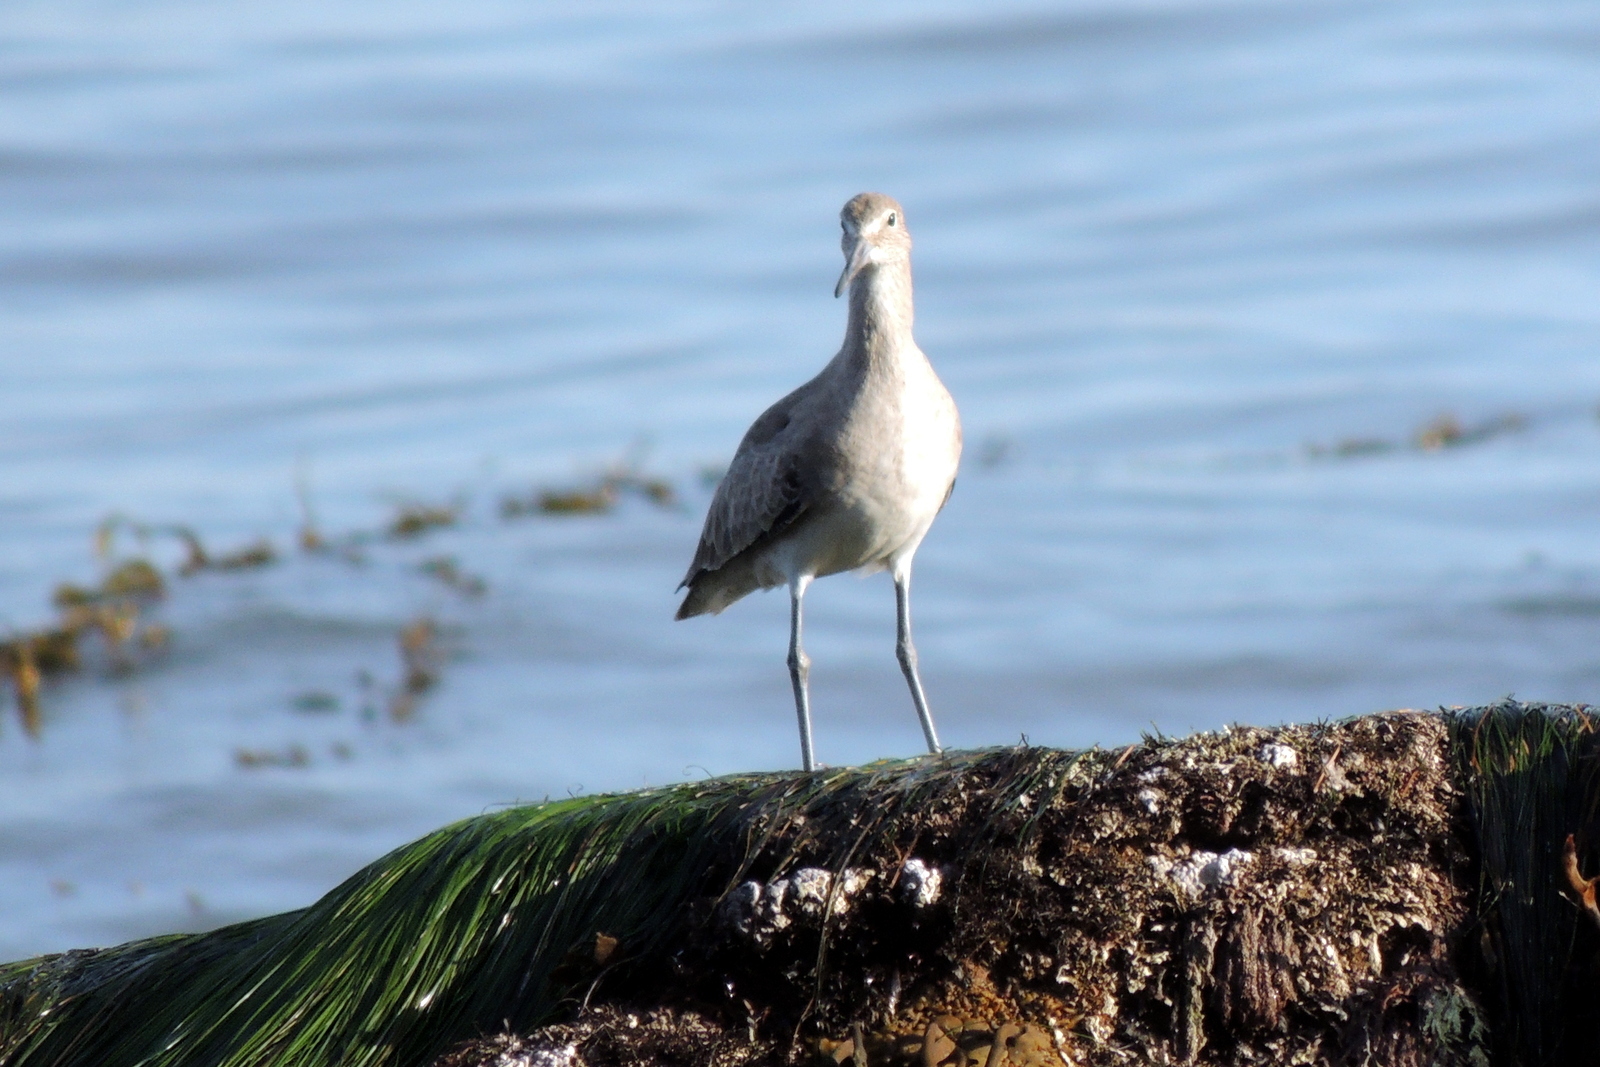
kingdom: Animalia
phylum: Chordata
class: Aves
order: Charadriiformes
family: Scolopacidae
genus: Tringa
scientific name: Tringa semipalmata
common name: Willet
